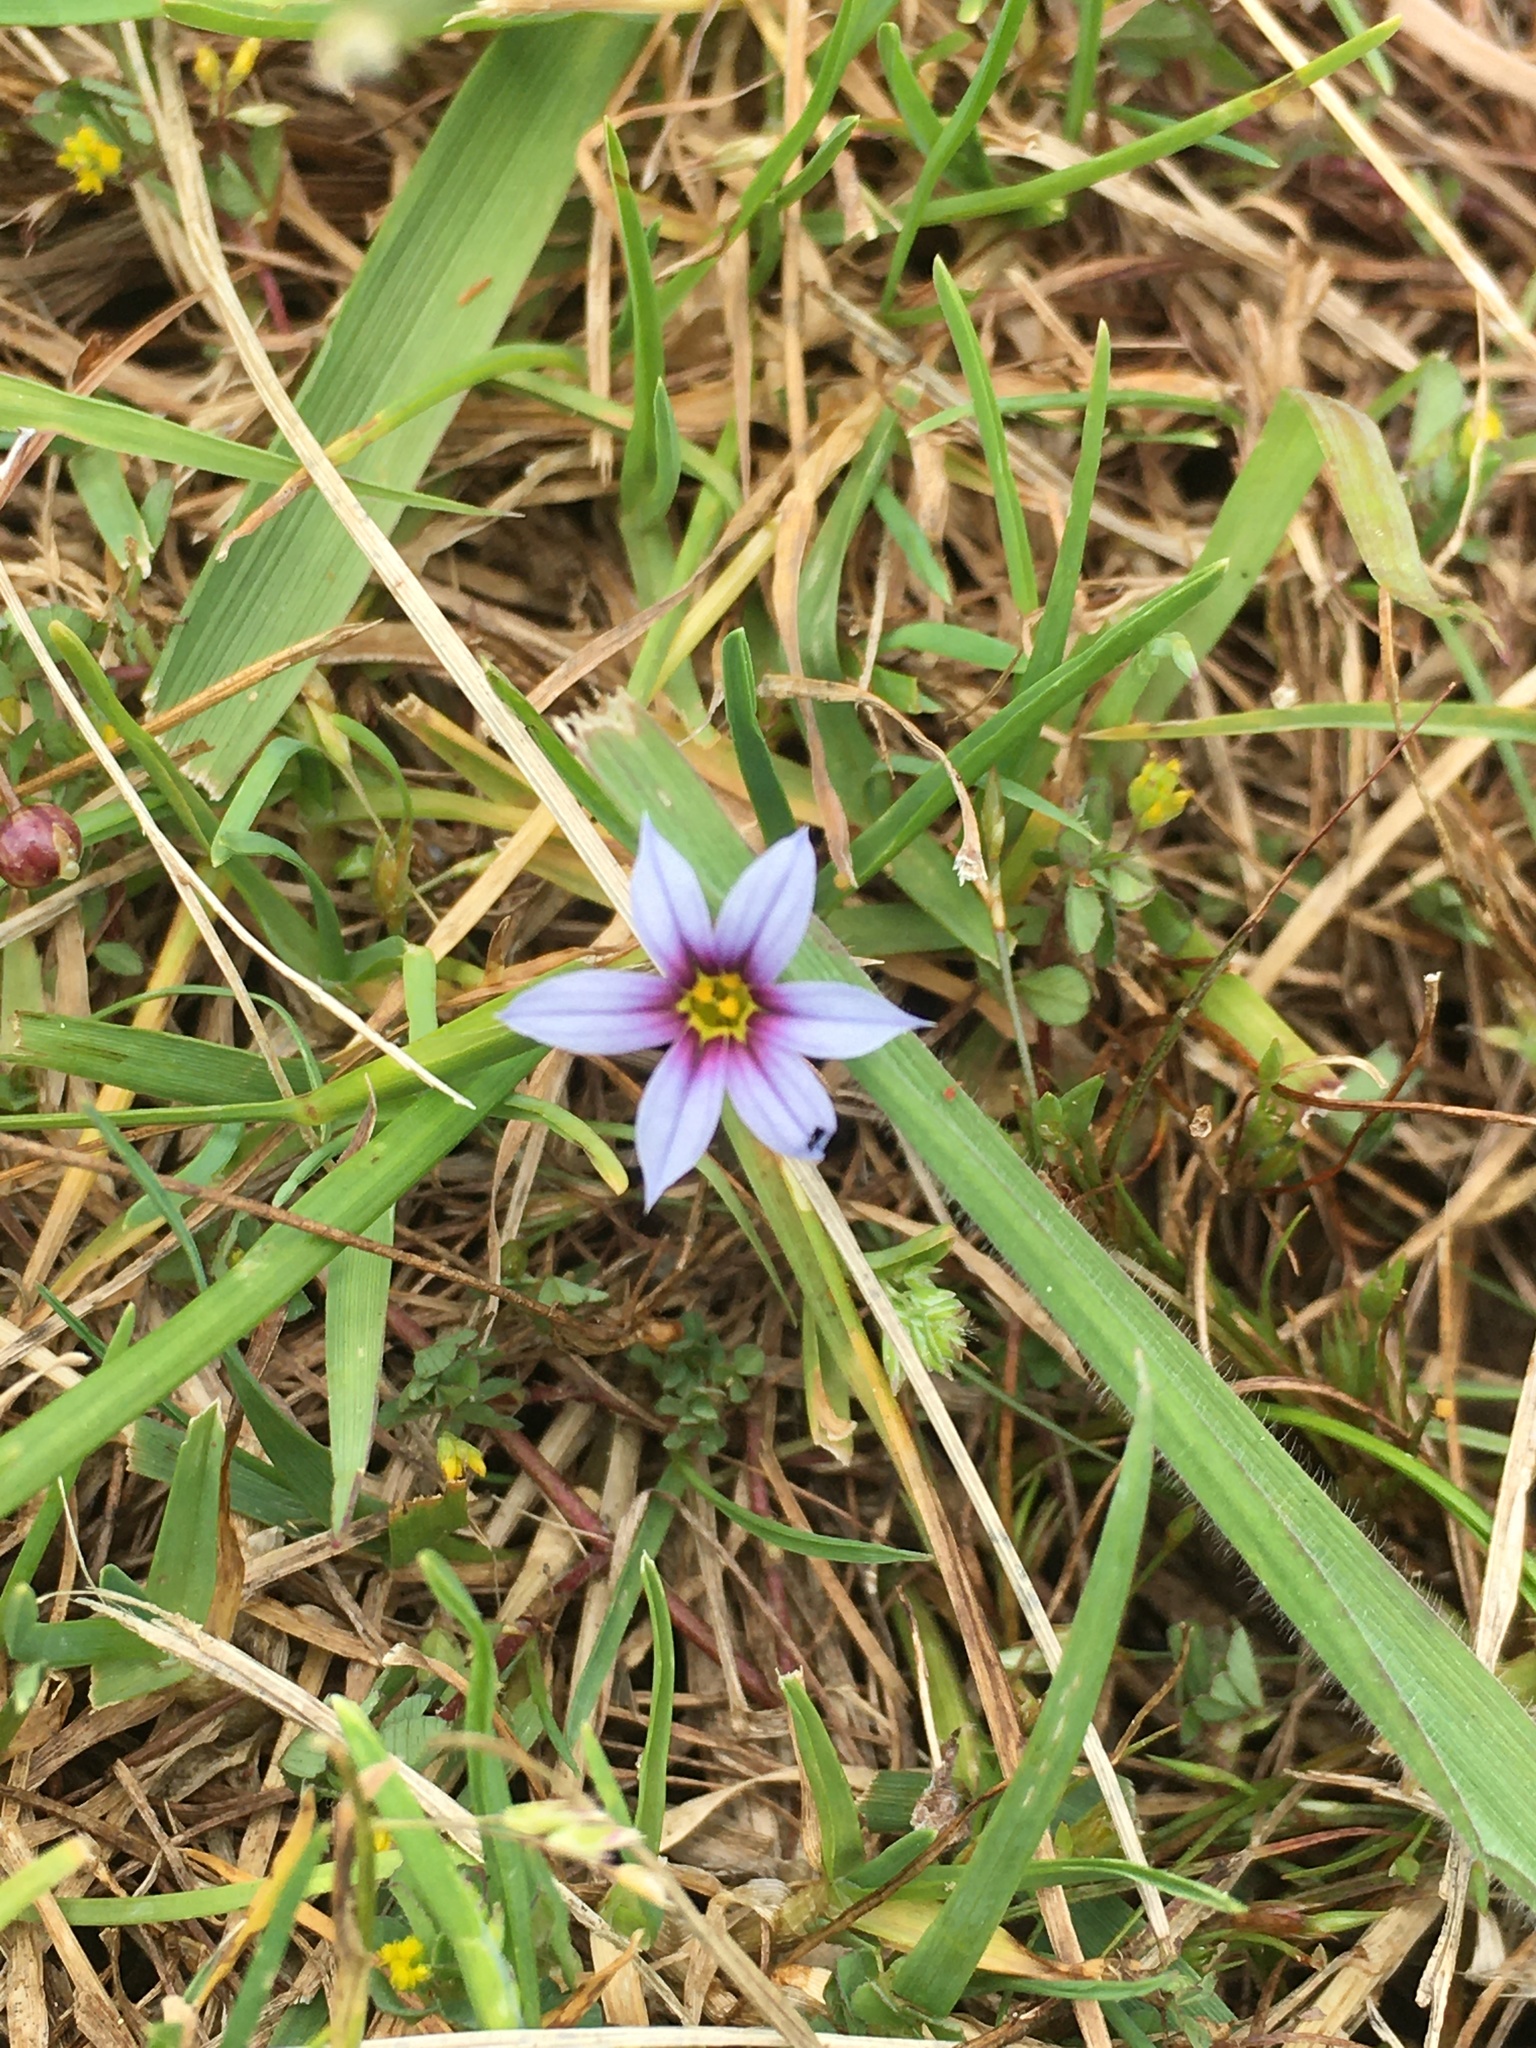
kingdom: Plantae
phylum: Tracheophyta
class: Liliopsida
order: Asparagales
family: Iridaceae
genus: Sisyrinchium
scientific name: Sisyrinchium micranthum
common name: Bermuda pigroot
